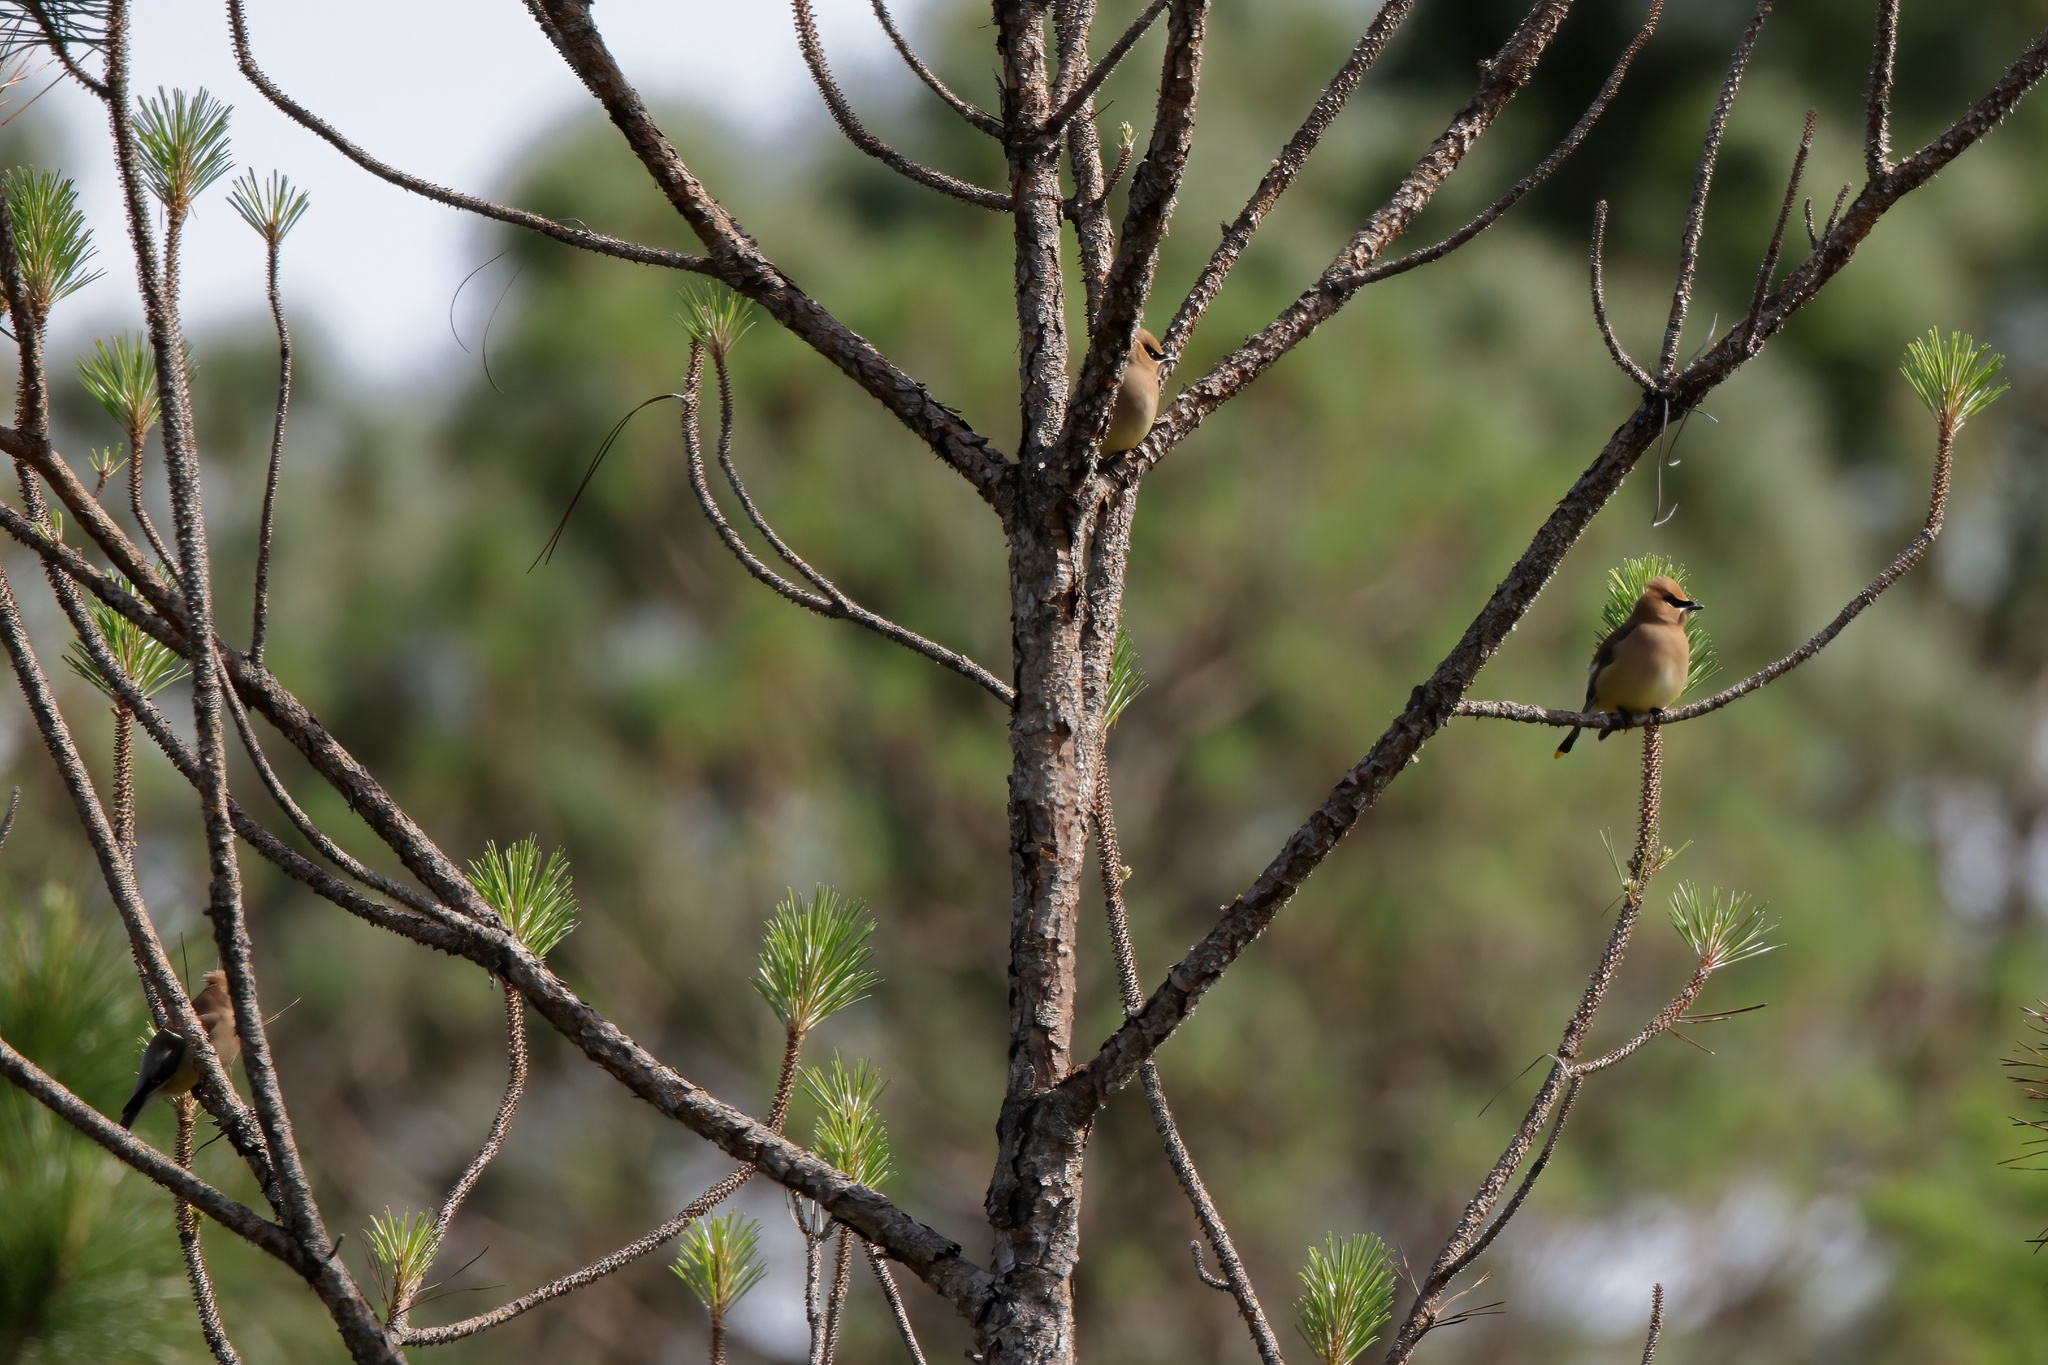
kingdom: Animalia
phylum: Chordata
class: Aves
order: Passeriformes
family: Bombycillidae
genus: Bombycilla
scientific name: Bombycilla cedrorum
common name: Cedar waxwing
